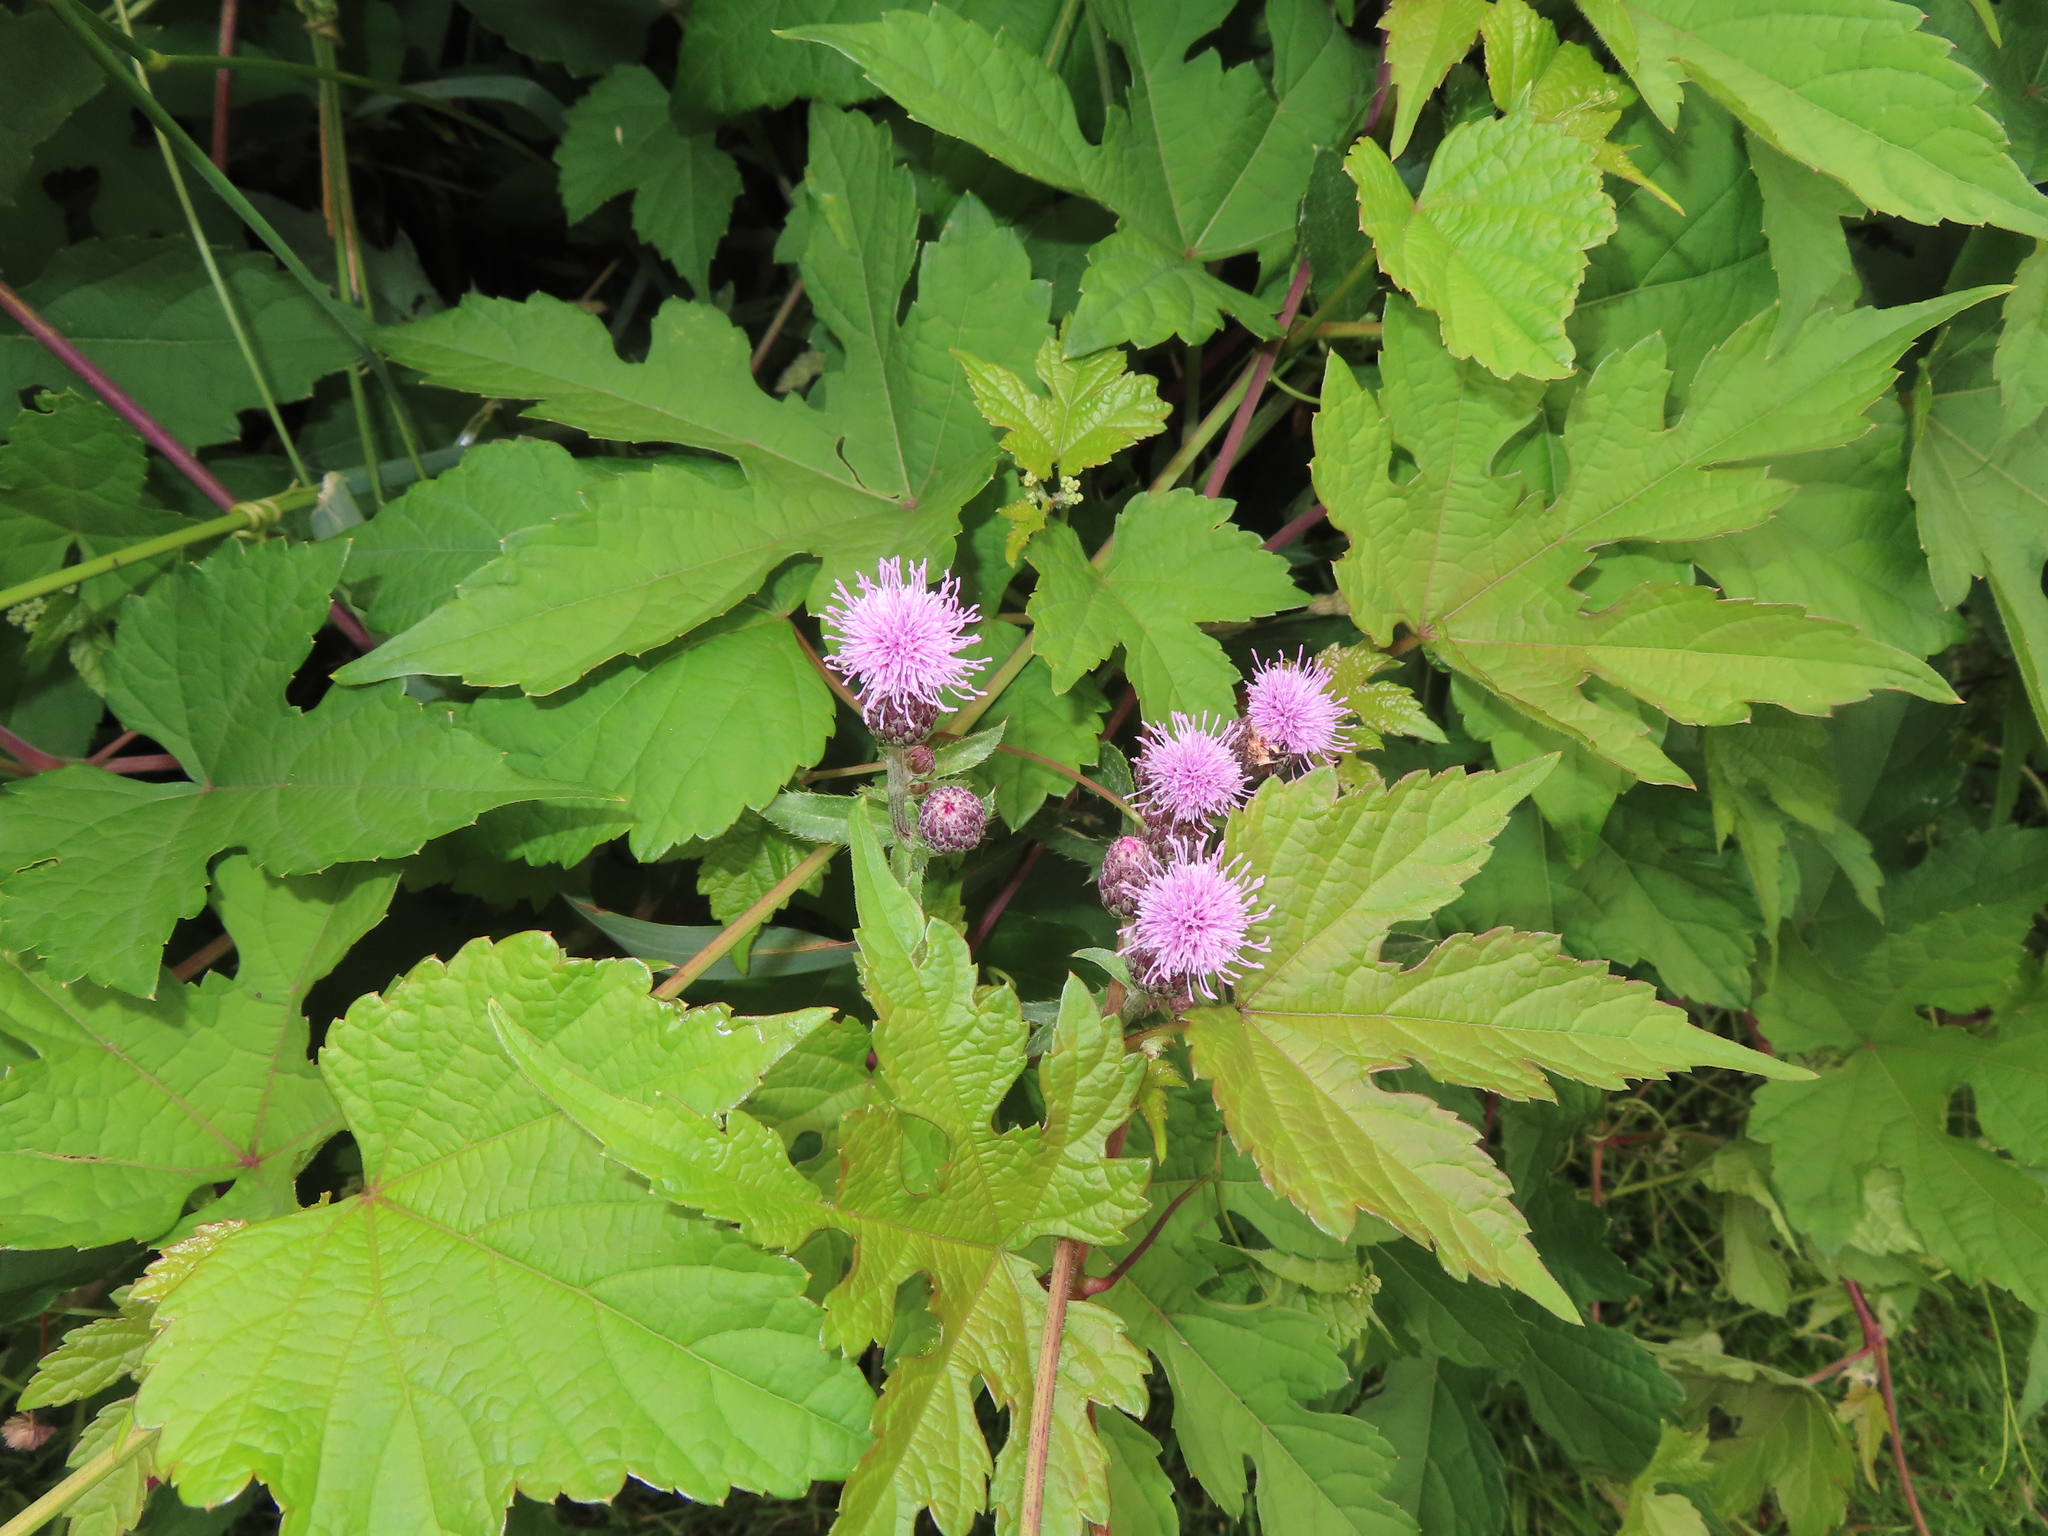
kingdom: Plantae
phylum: Tracheophyta
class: Magnoliopsida
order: Asterales
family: Asteraceae
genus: Cirsium
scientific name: Cirsium arvense
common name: Creeping thistle
